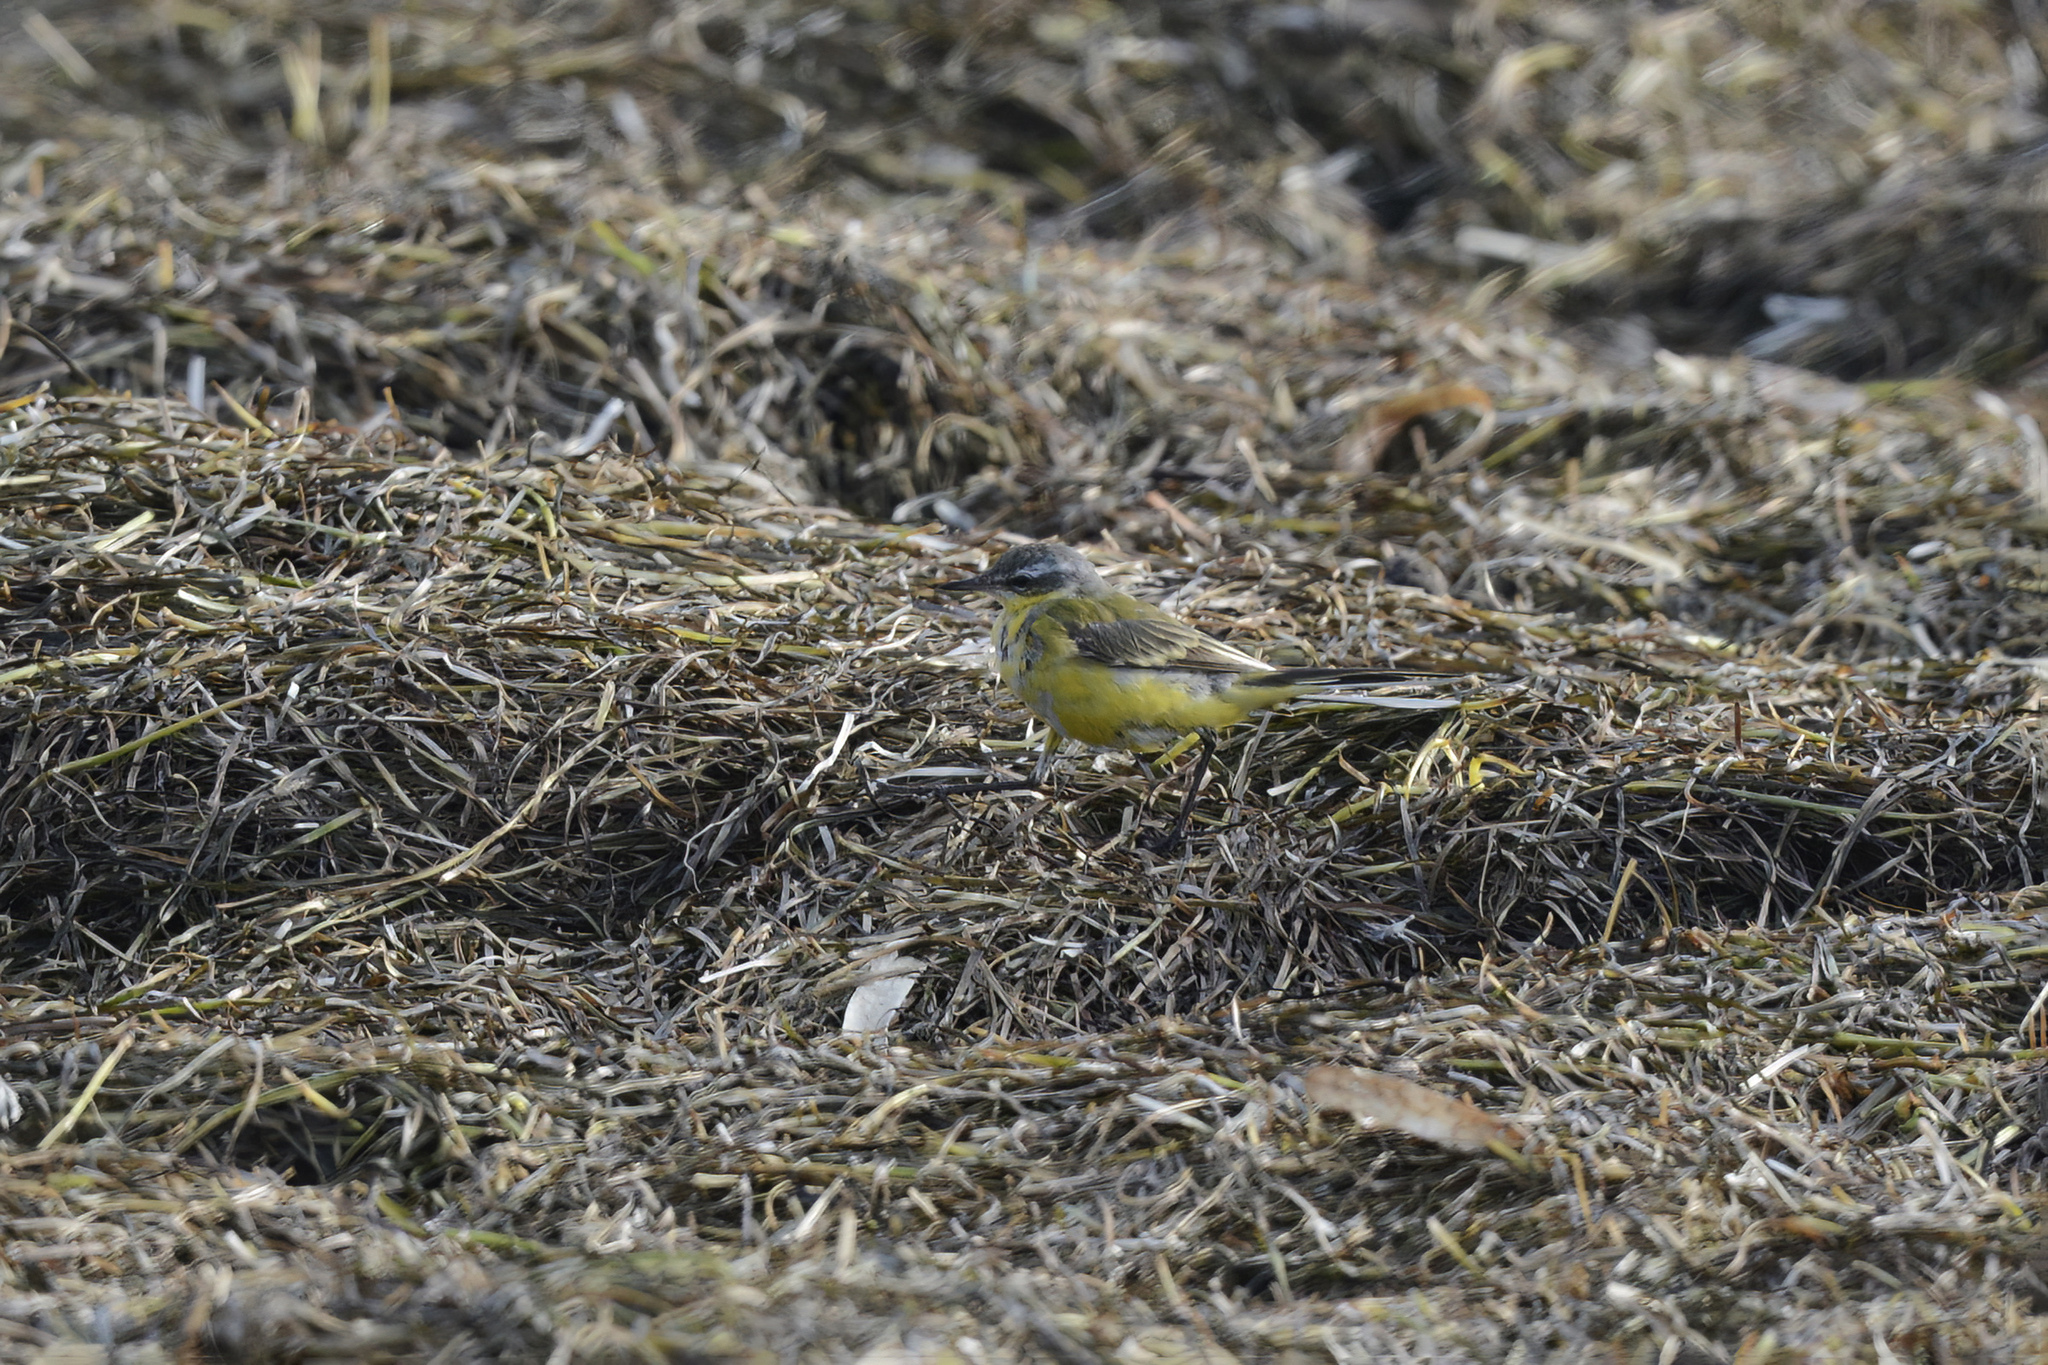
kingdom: Animalia
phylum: Chordata
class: Aves
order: Passeriformes
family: Motacillidae
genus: Motacilla
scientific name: Motacilla tschutschensis
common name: Eastern yellow wagtail
